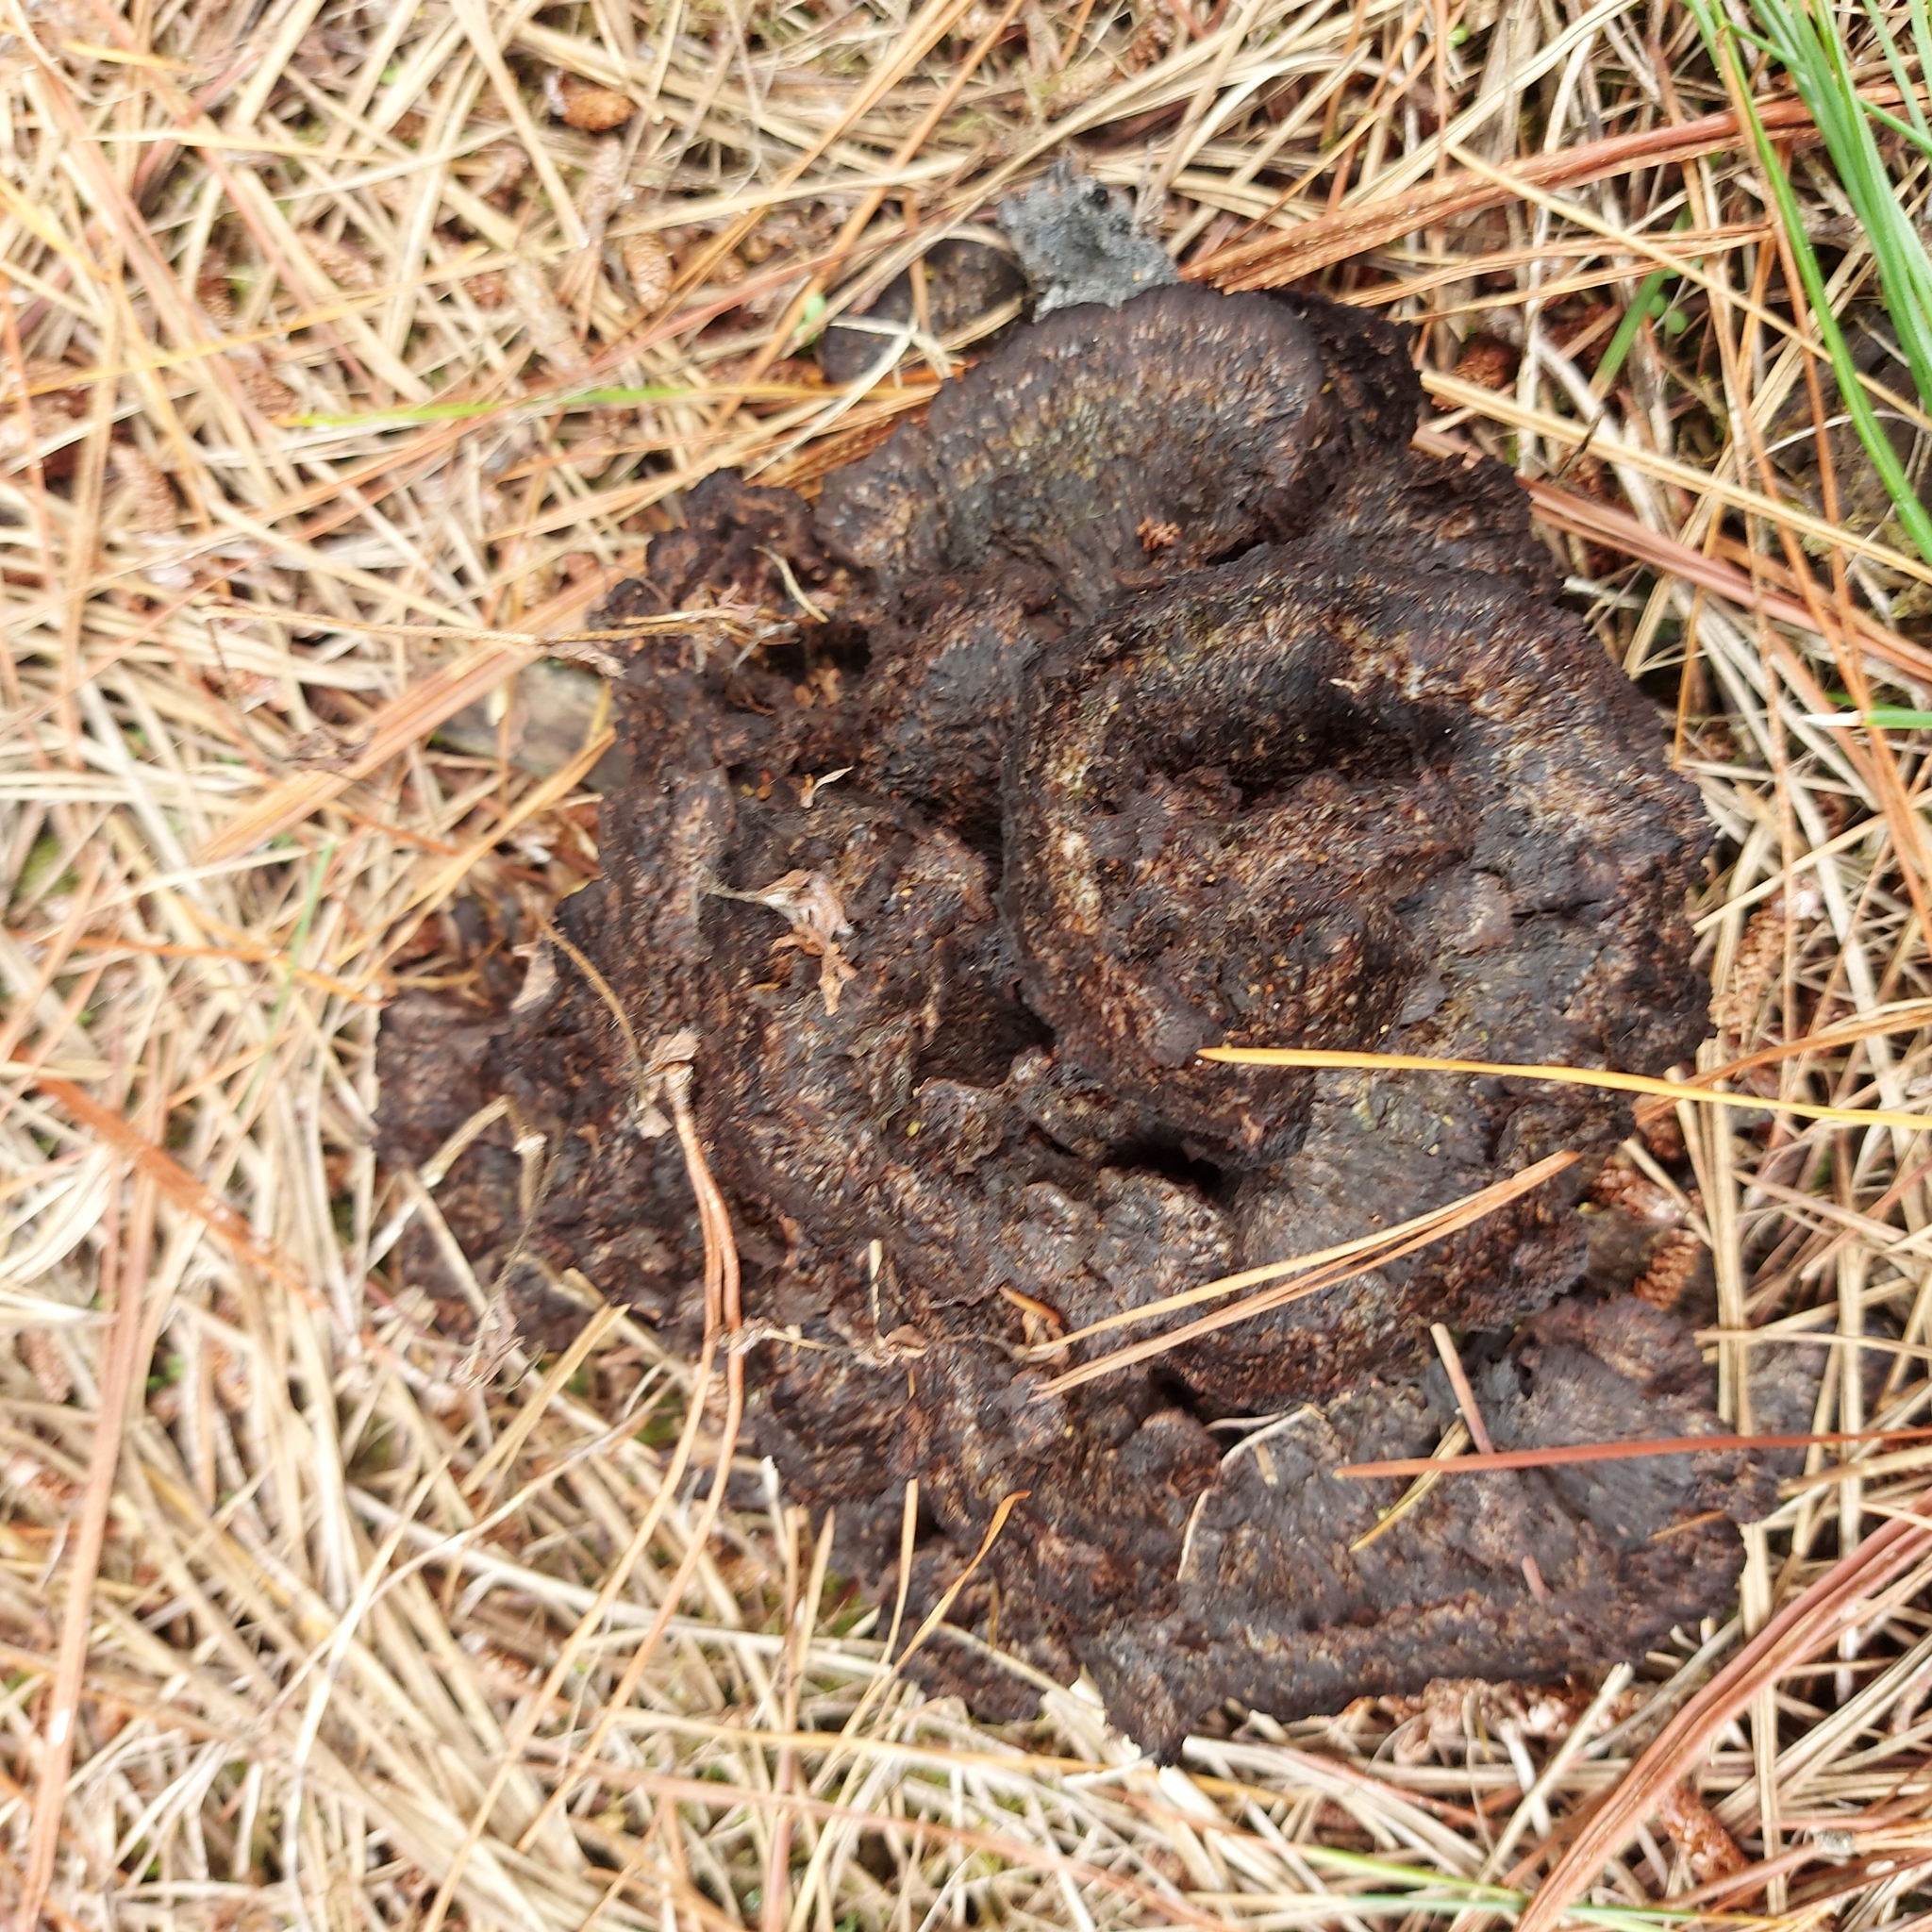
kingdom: Fungi
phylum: Basidiomycota
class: Agaricomycetes
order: Thelephorales
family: Thelephoraceae
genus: Thelephora
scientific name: Thelephora terrestris
